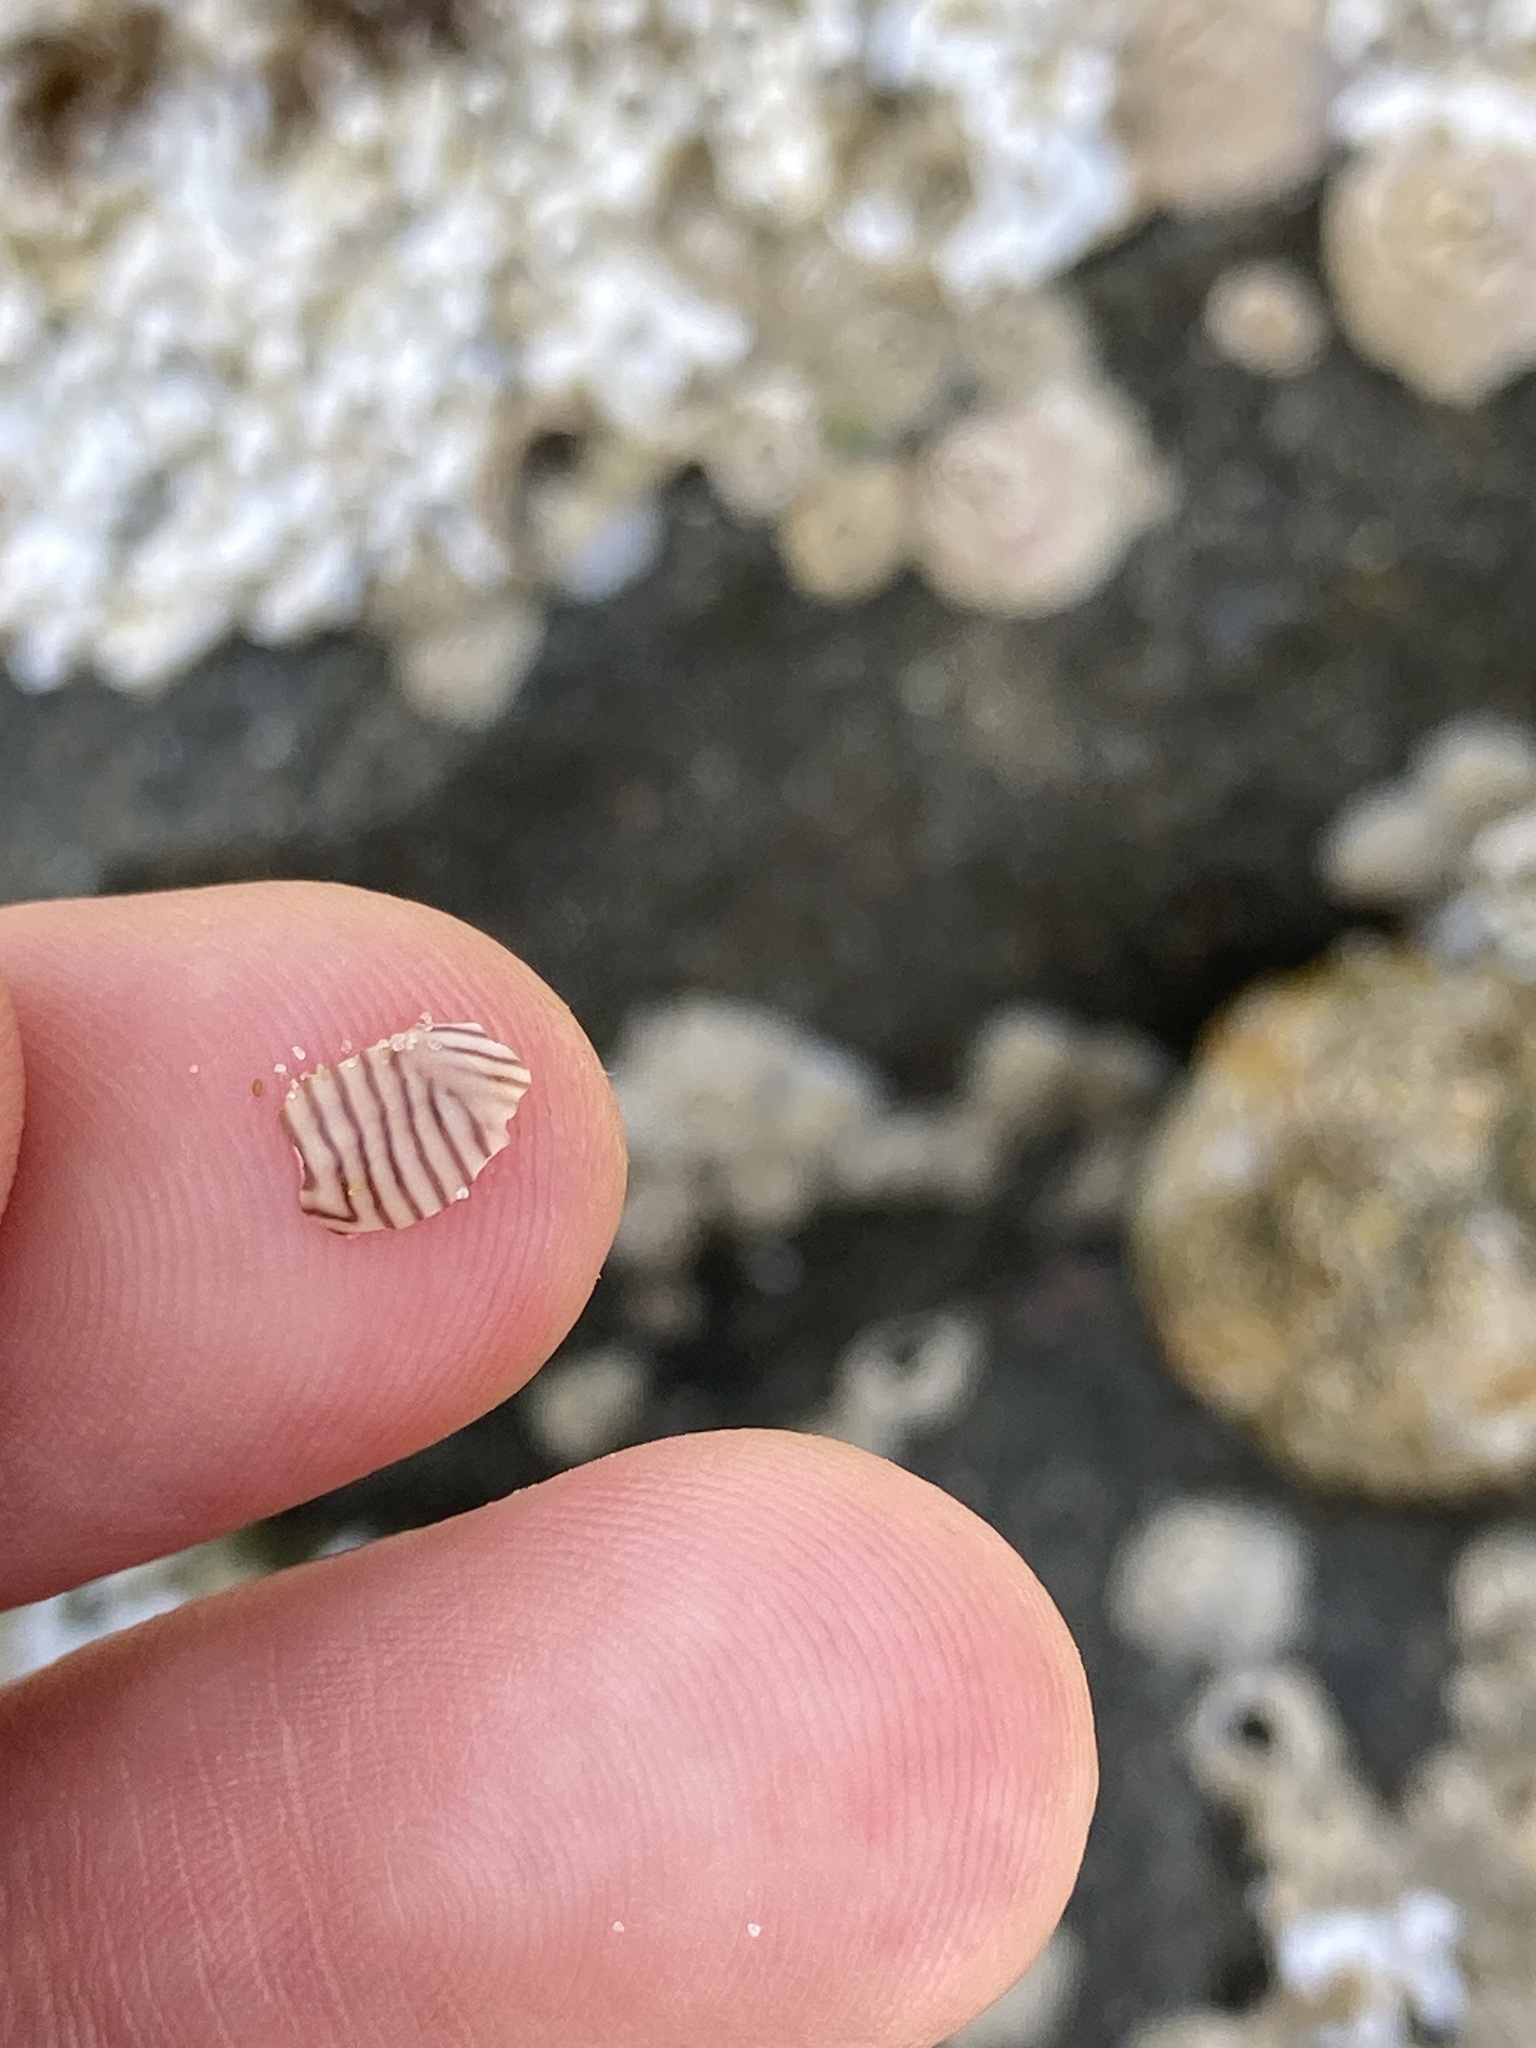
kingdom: Animalia
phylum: Mollusca
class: Gastropoda
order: Trochida
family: Trochidae
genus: Bankivia
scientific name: Bankivia fasciata
